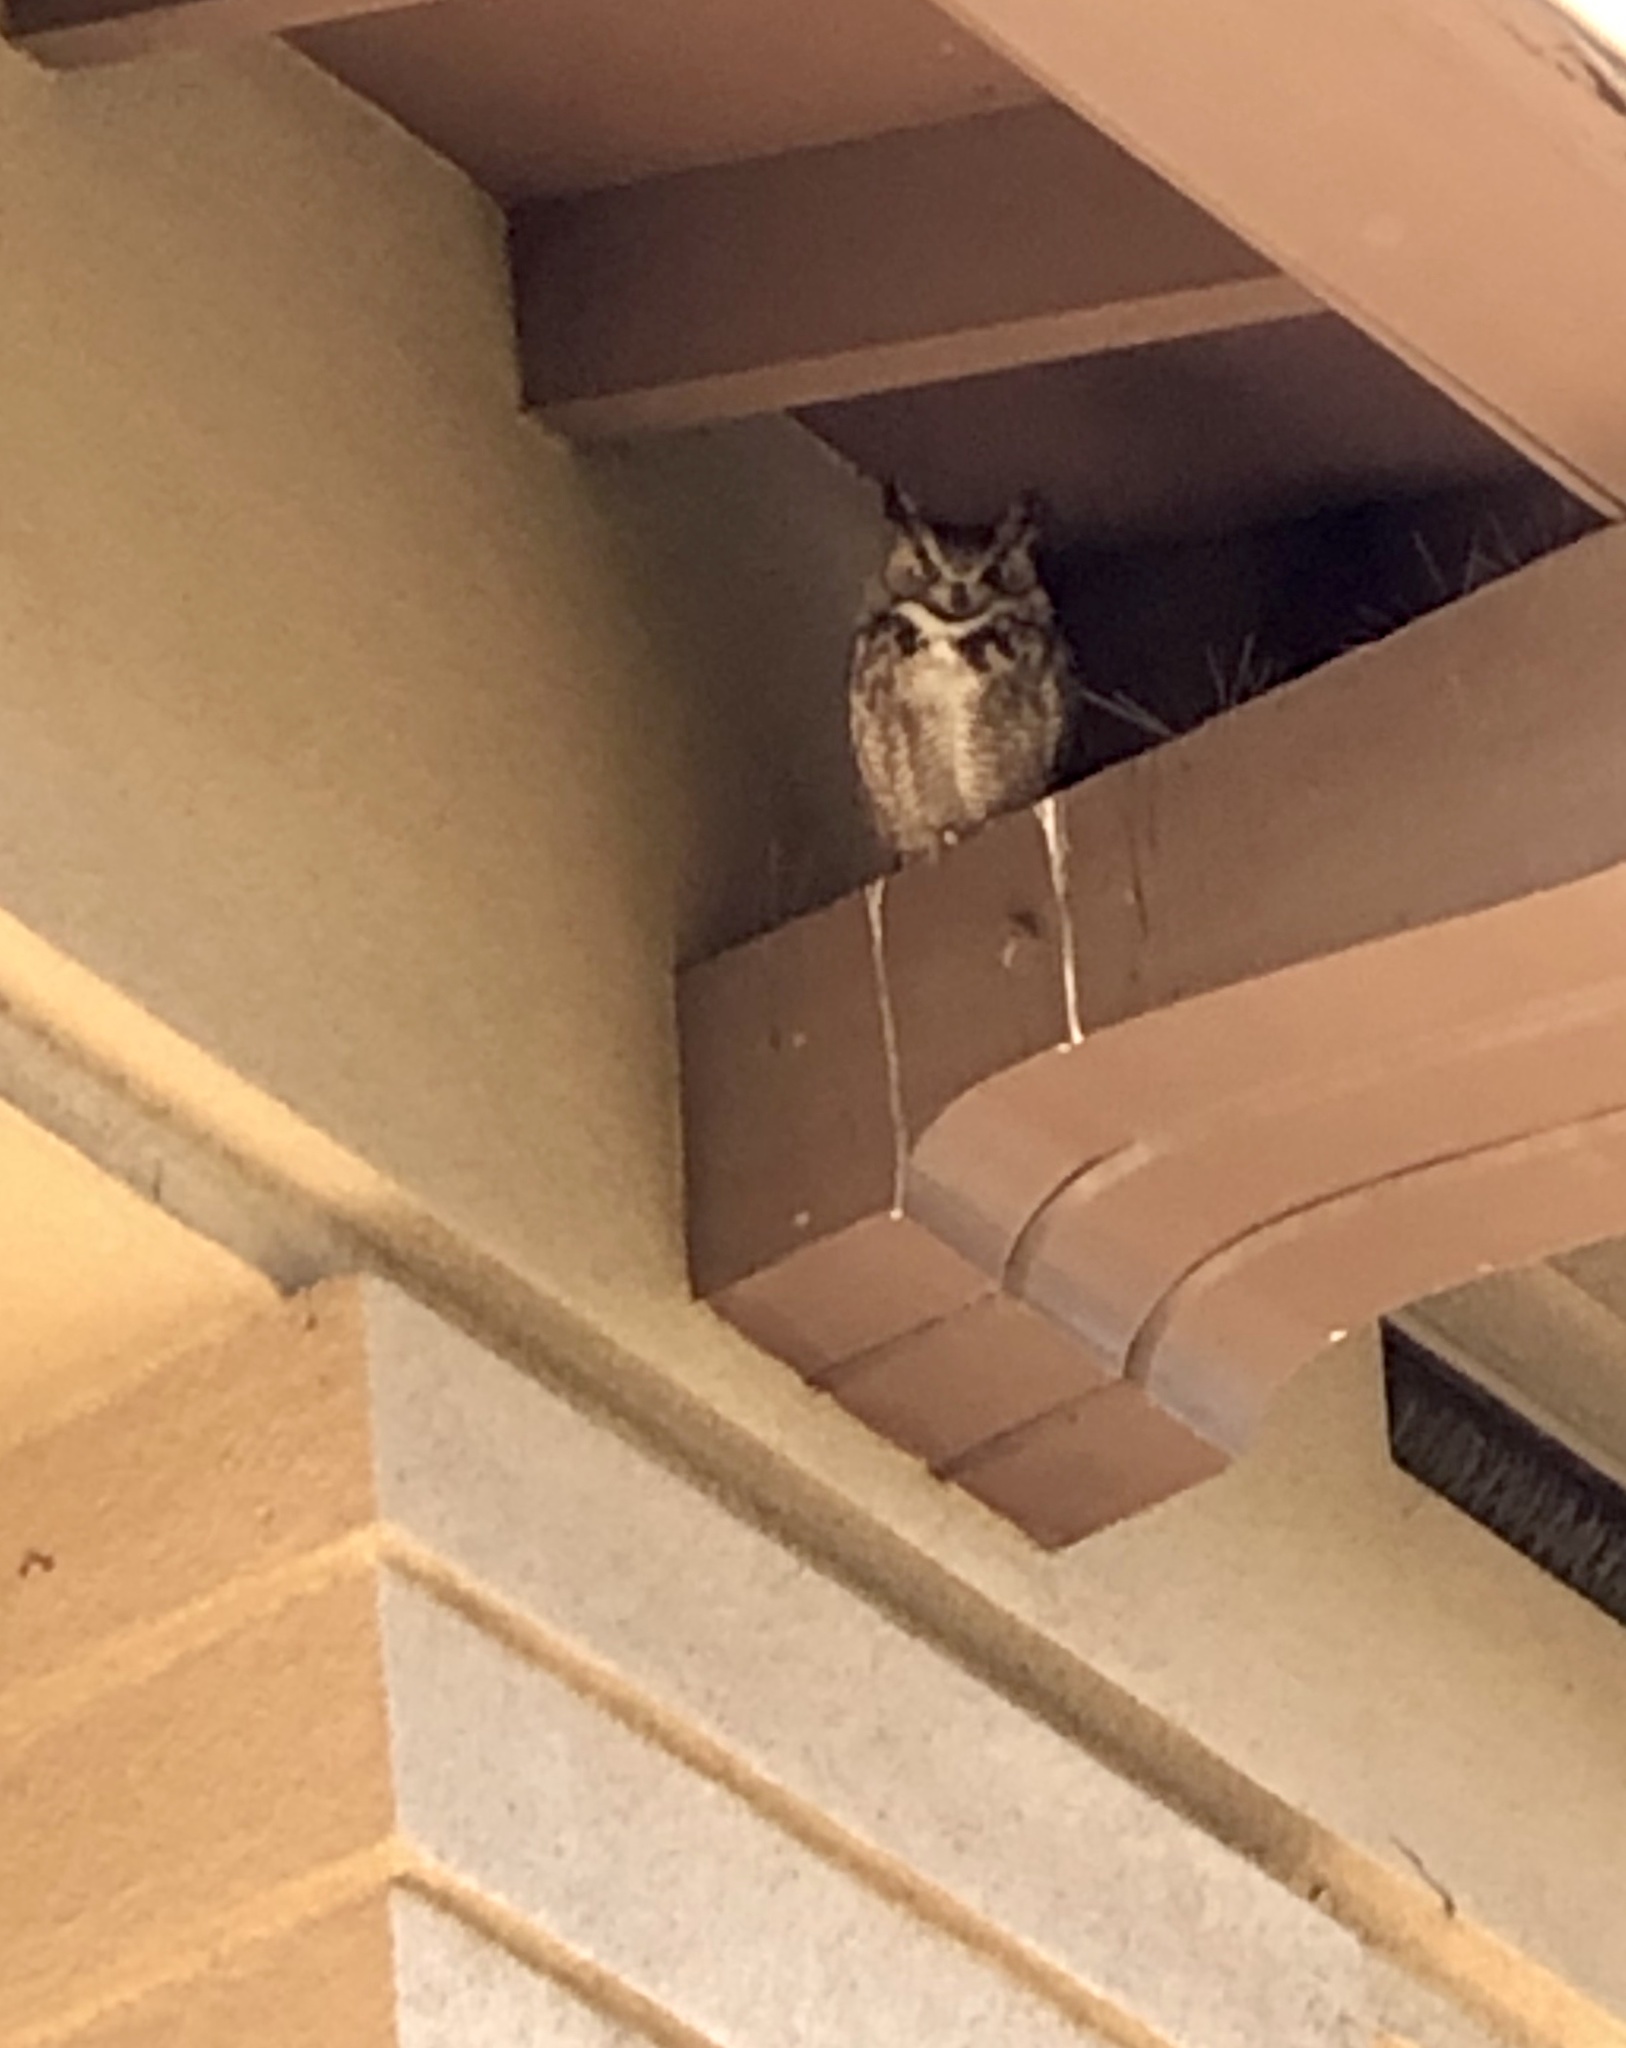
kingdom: Animalia
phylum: Chordata
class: Aves
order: Strigiformes
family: Strigidae
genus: Bubo
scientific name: Bubo virginianus
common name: Great horned owl
